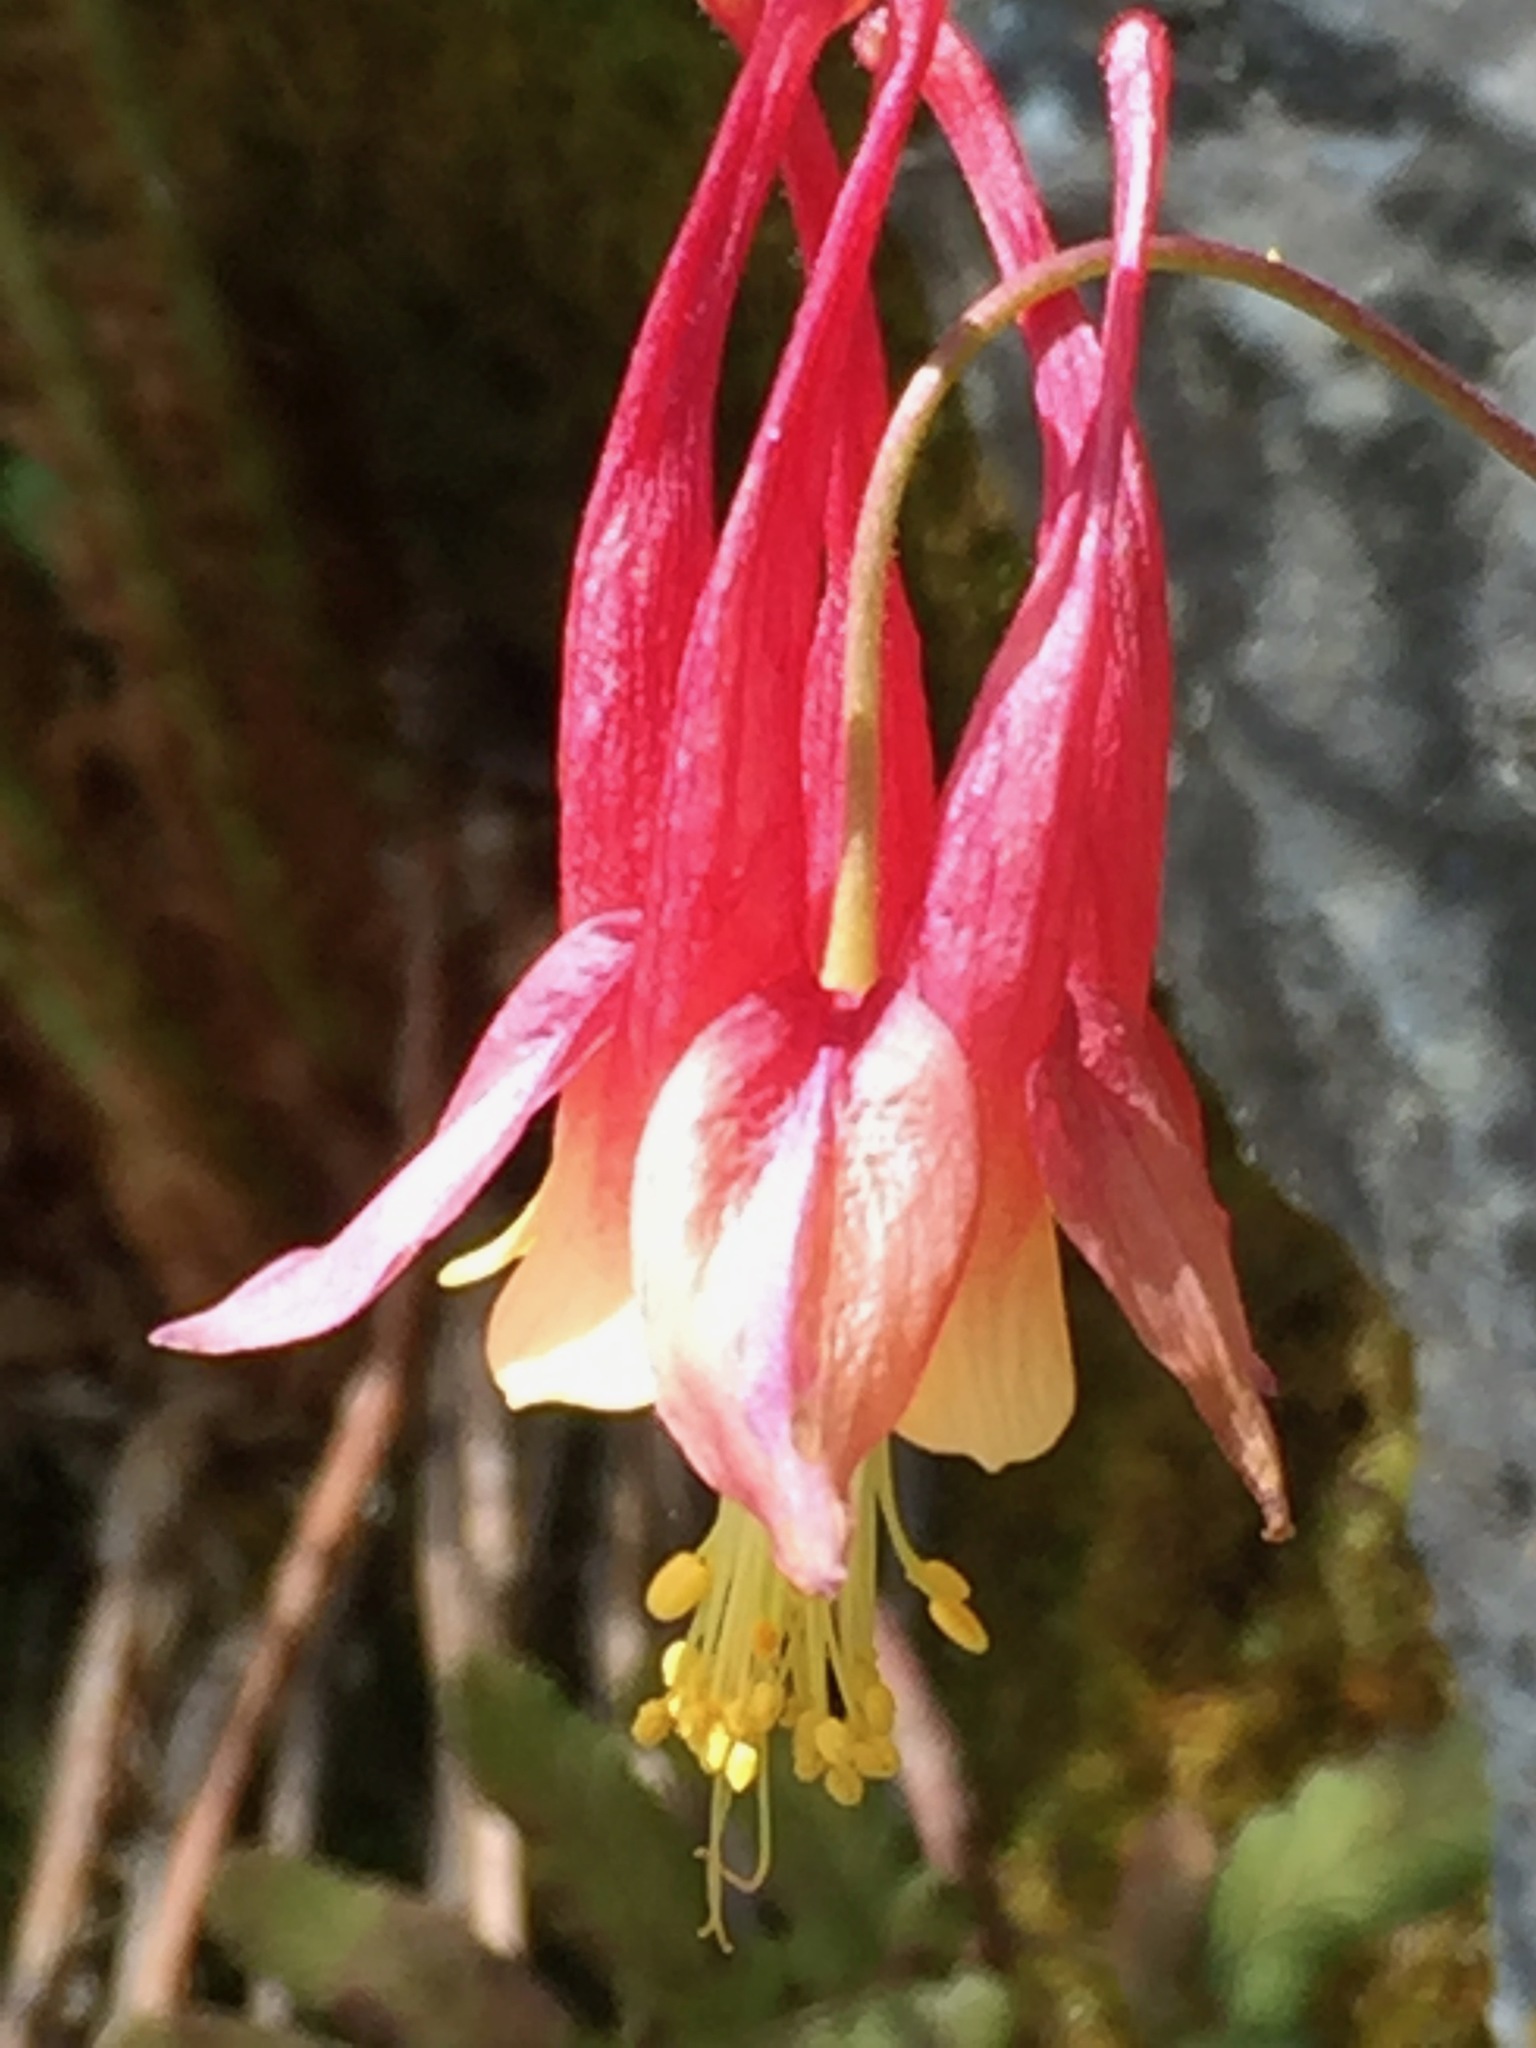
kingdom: Plantae
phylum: Tracheophyta
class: Magnoliopsida
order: Ranunculales
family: Ranunculaceae
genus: Aquilegia
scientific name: Aquilegia canadensis
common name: American columbine
